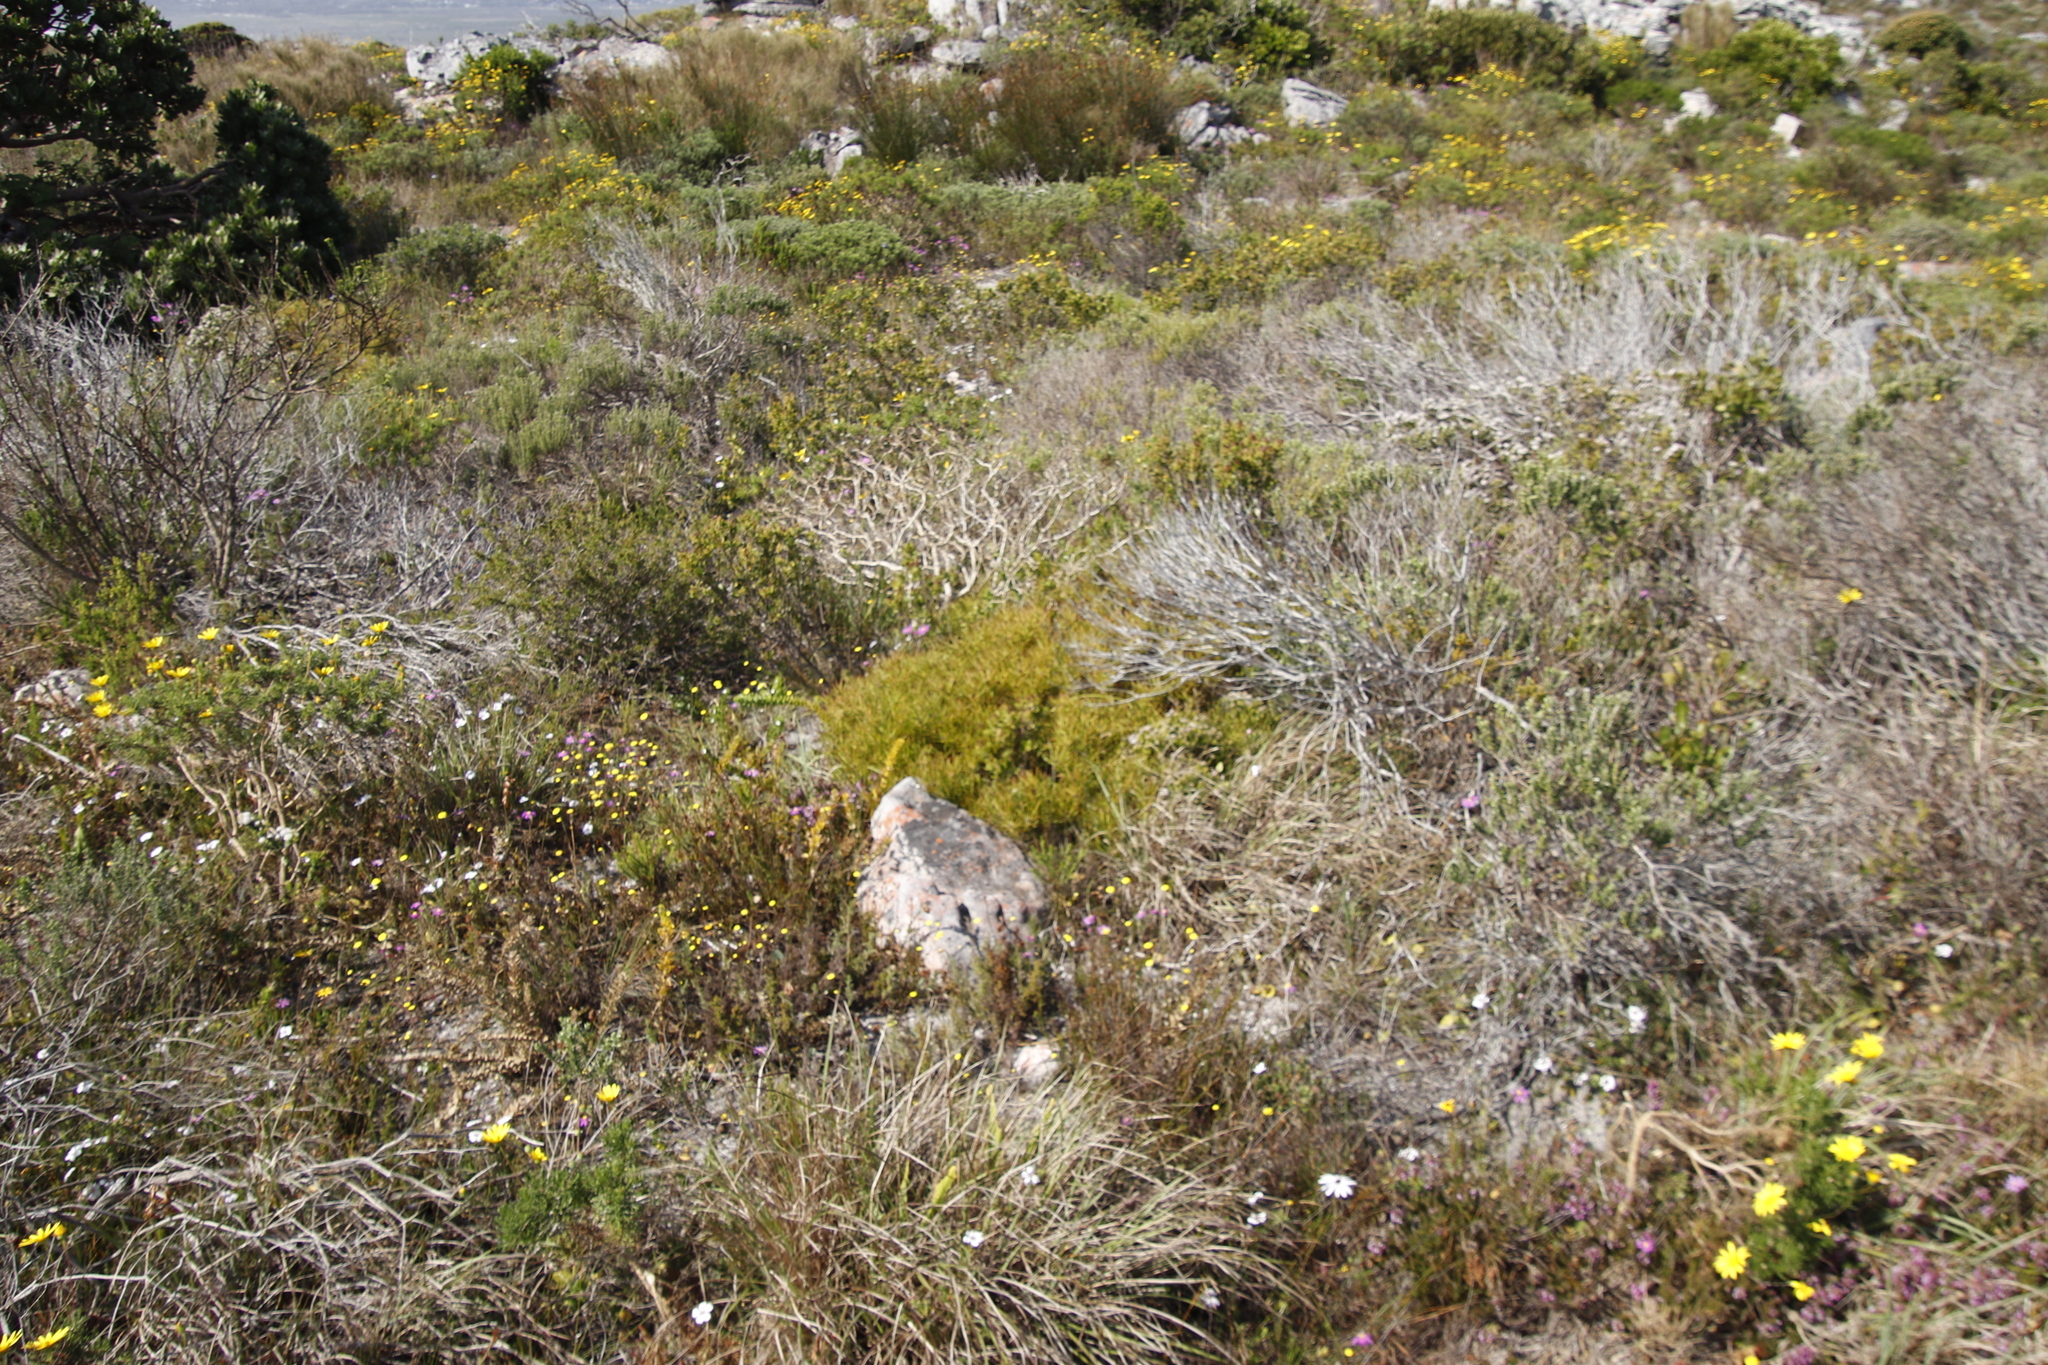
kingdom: Plantae
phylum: Tracheophyta
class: Magnoliopsida
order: Proteales
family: Proteaceae
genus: Leucadendron
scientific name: Leucadendron salignum
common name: Common sunshine conebush
